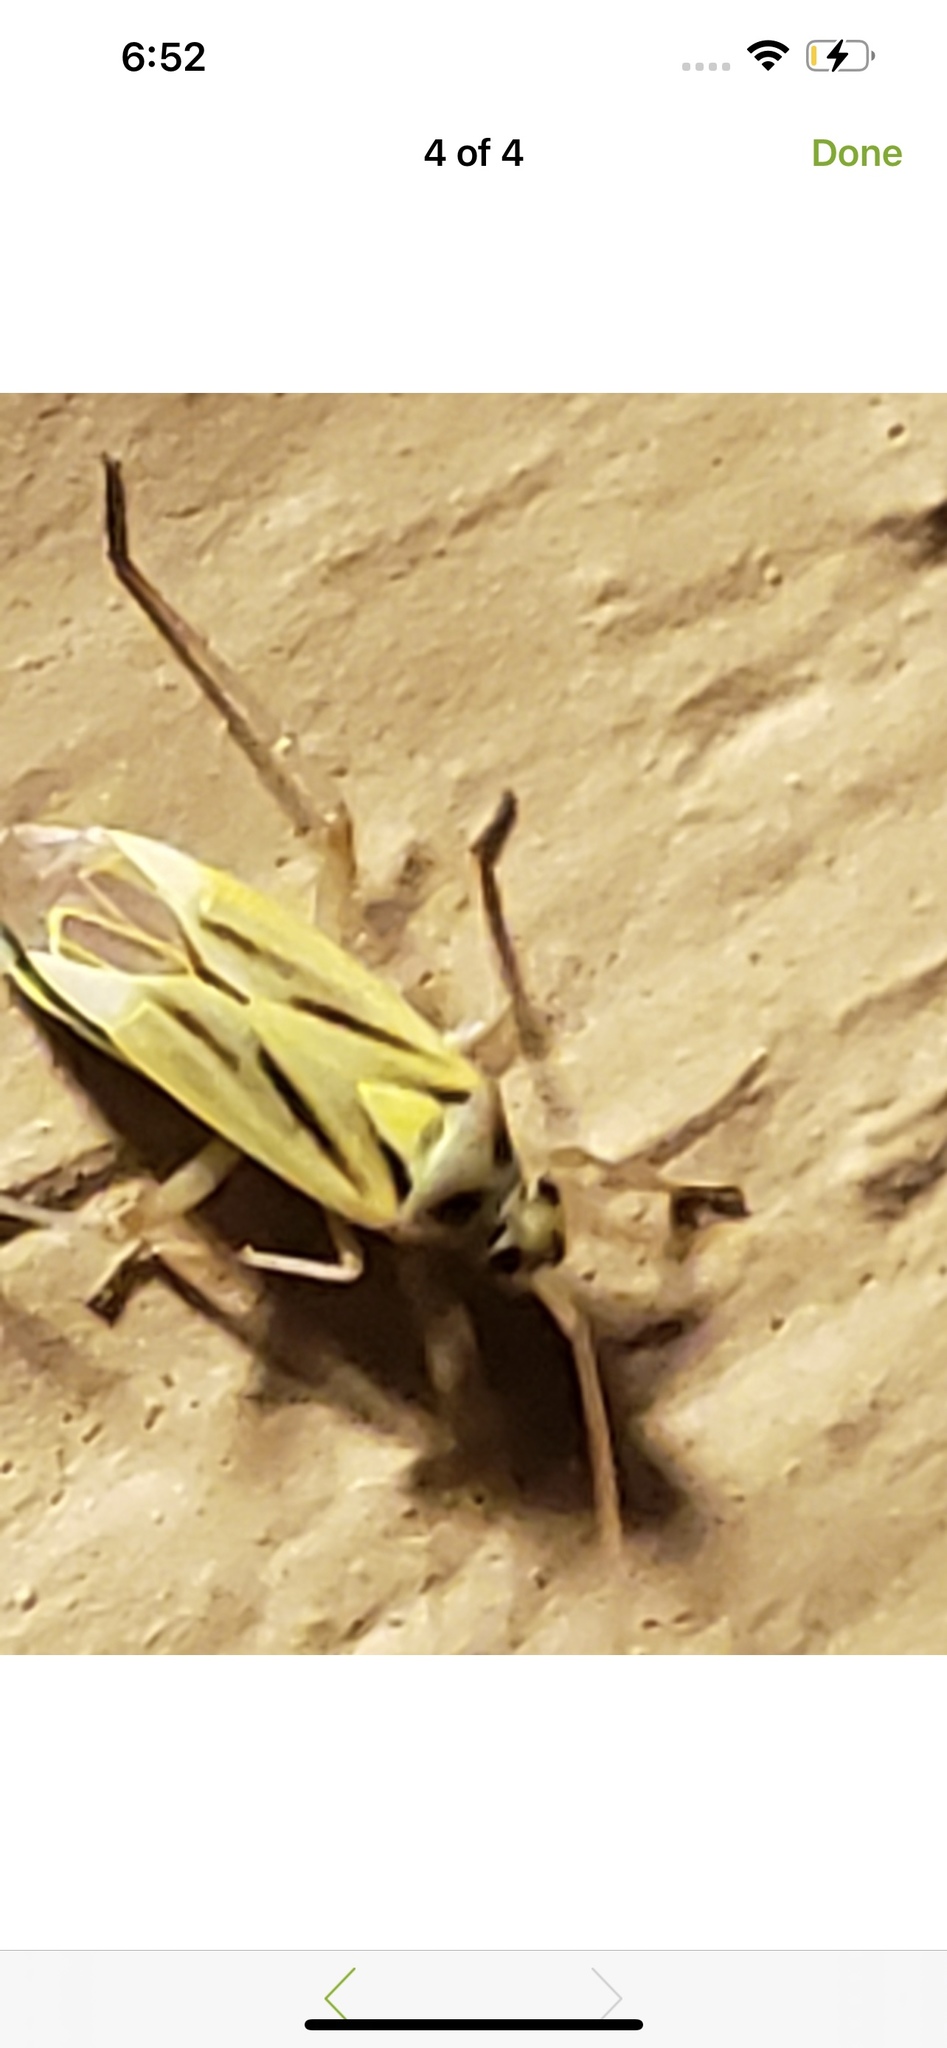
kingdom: Animalia
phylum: Arthropoda
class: Insecta
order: Hemiptera
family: Miridae
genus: Stenotus
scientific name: Stenotus binotatus
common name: Plant bug
